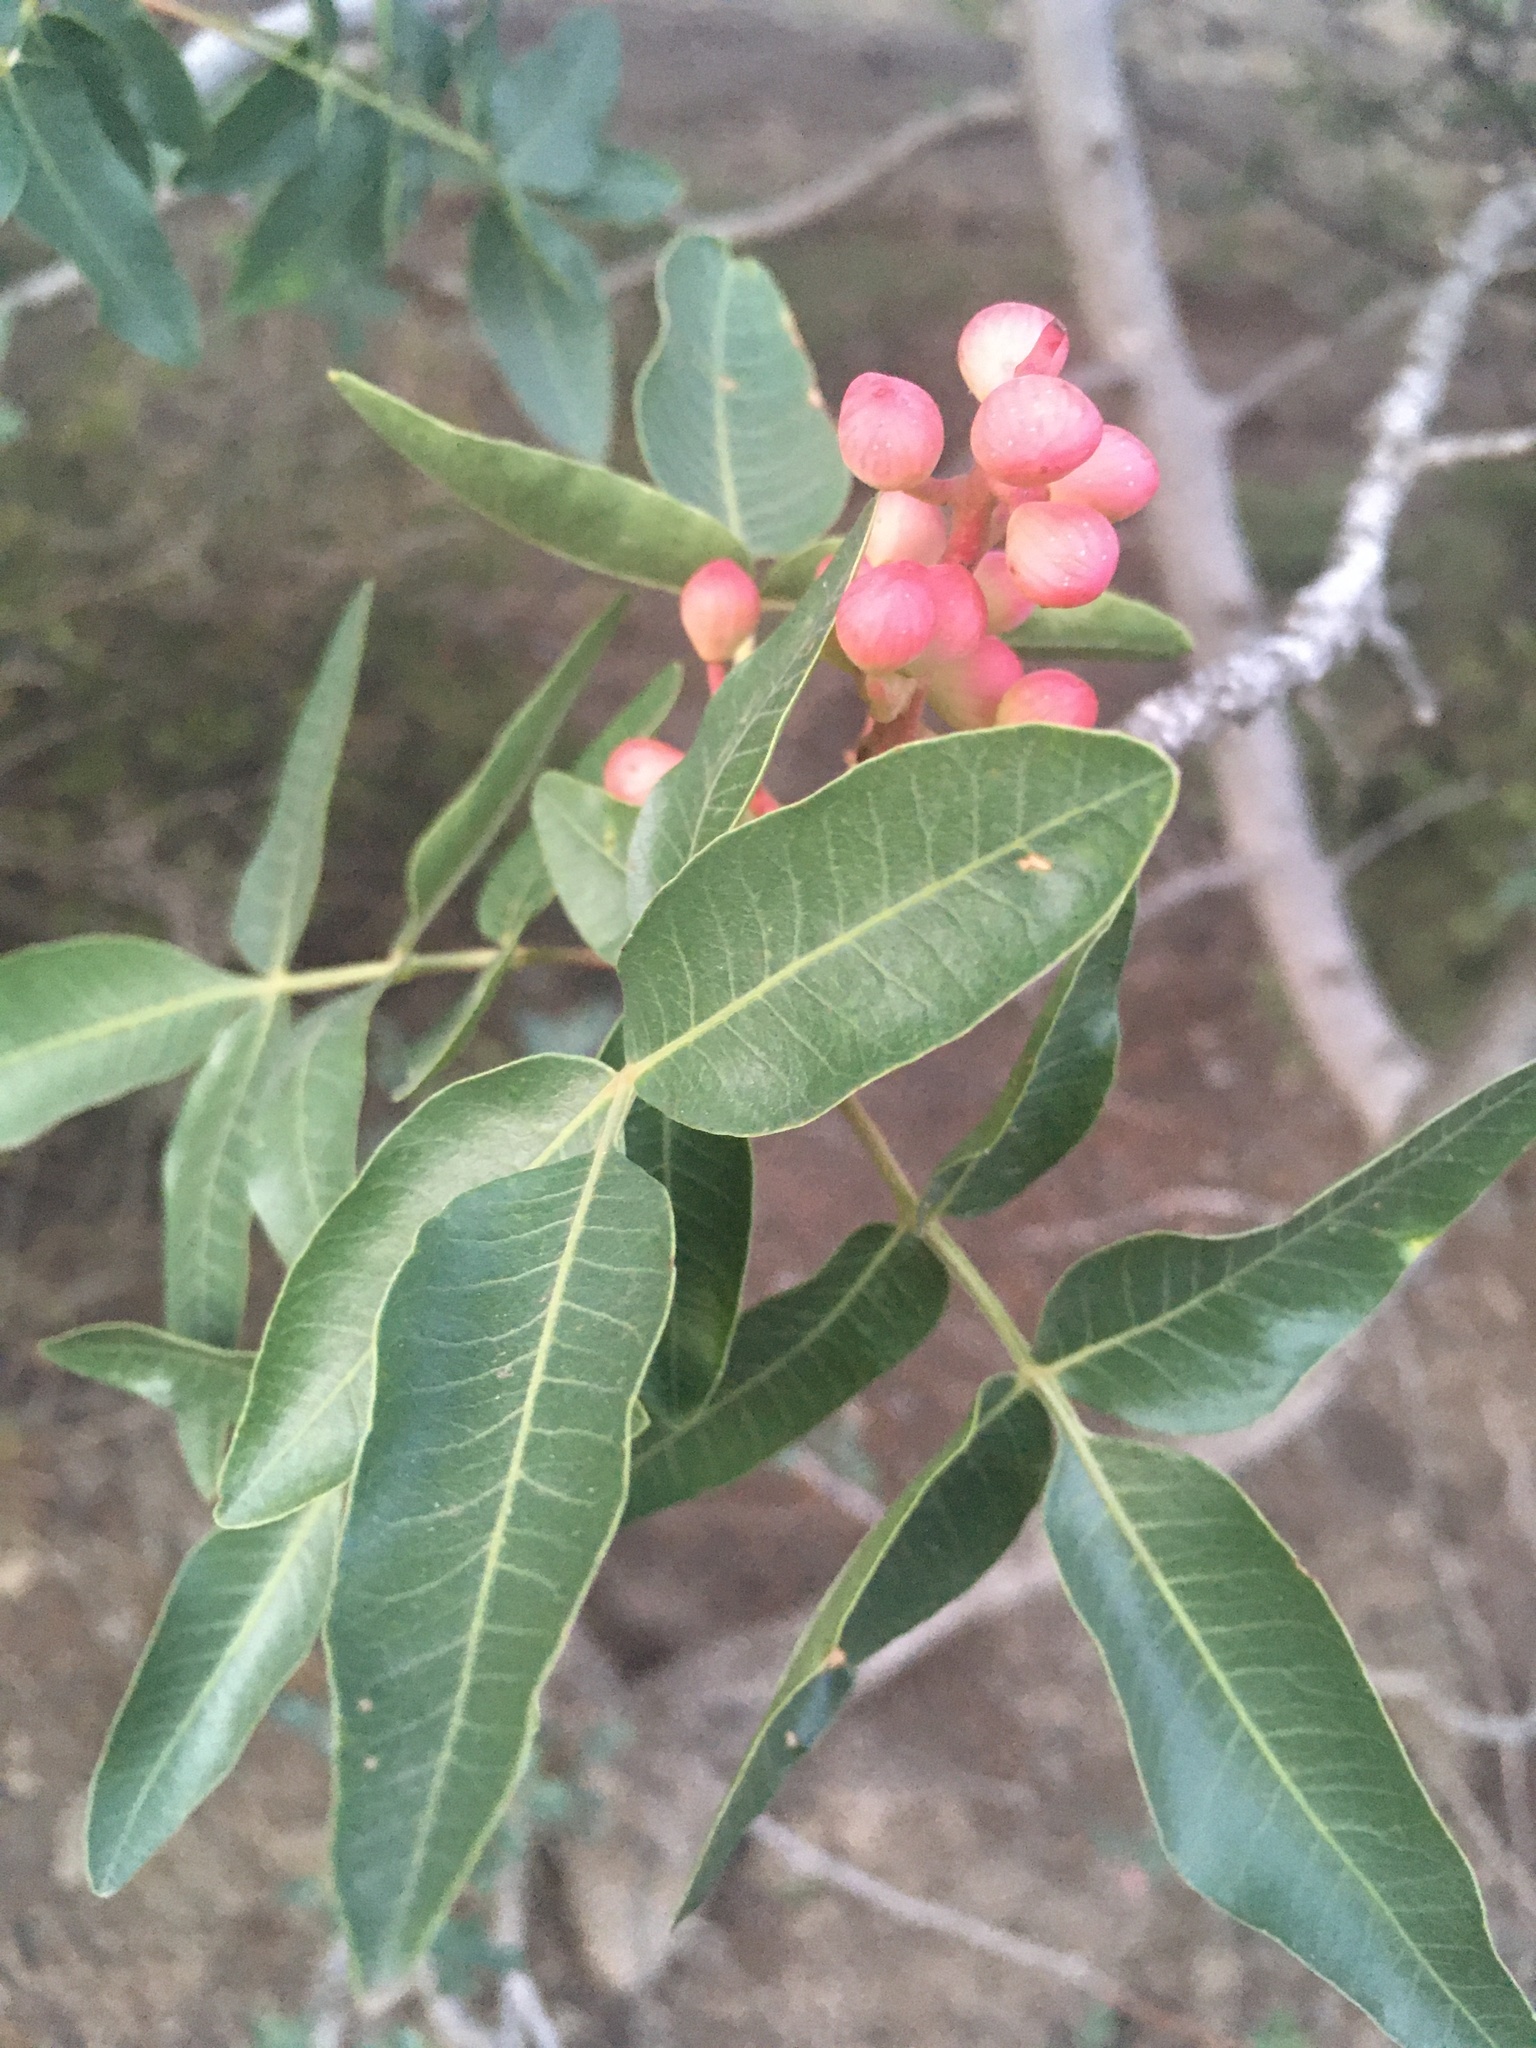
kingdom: Plantae
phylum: Tracheophyta
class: Magnoliopsida
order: Sapindales
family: Anacardiaceae
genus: Pistacia
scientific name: Pistacia atlantica
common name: Mt. atlas mastic tree
